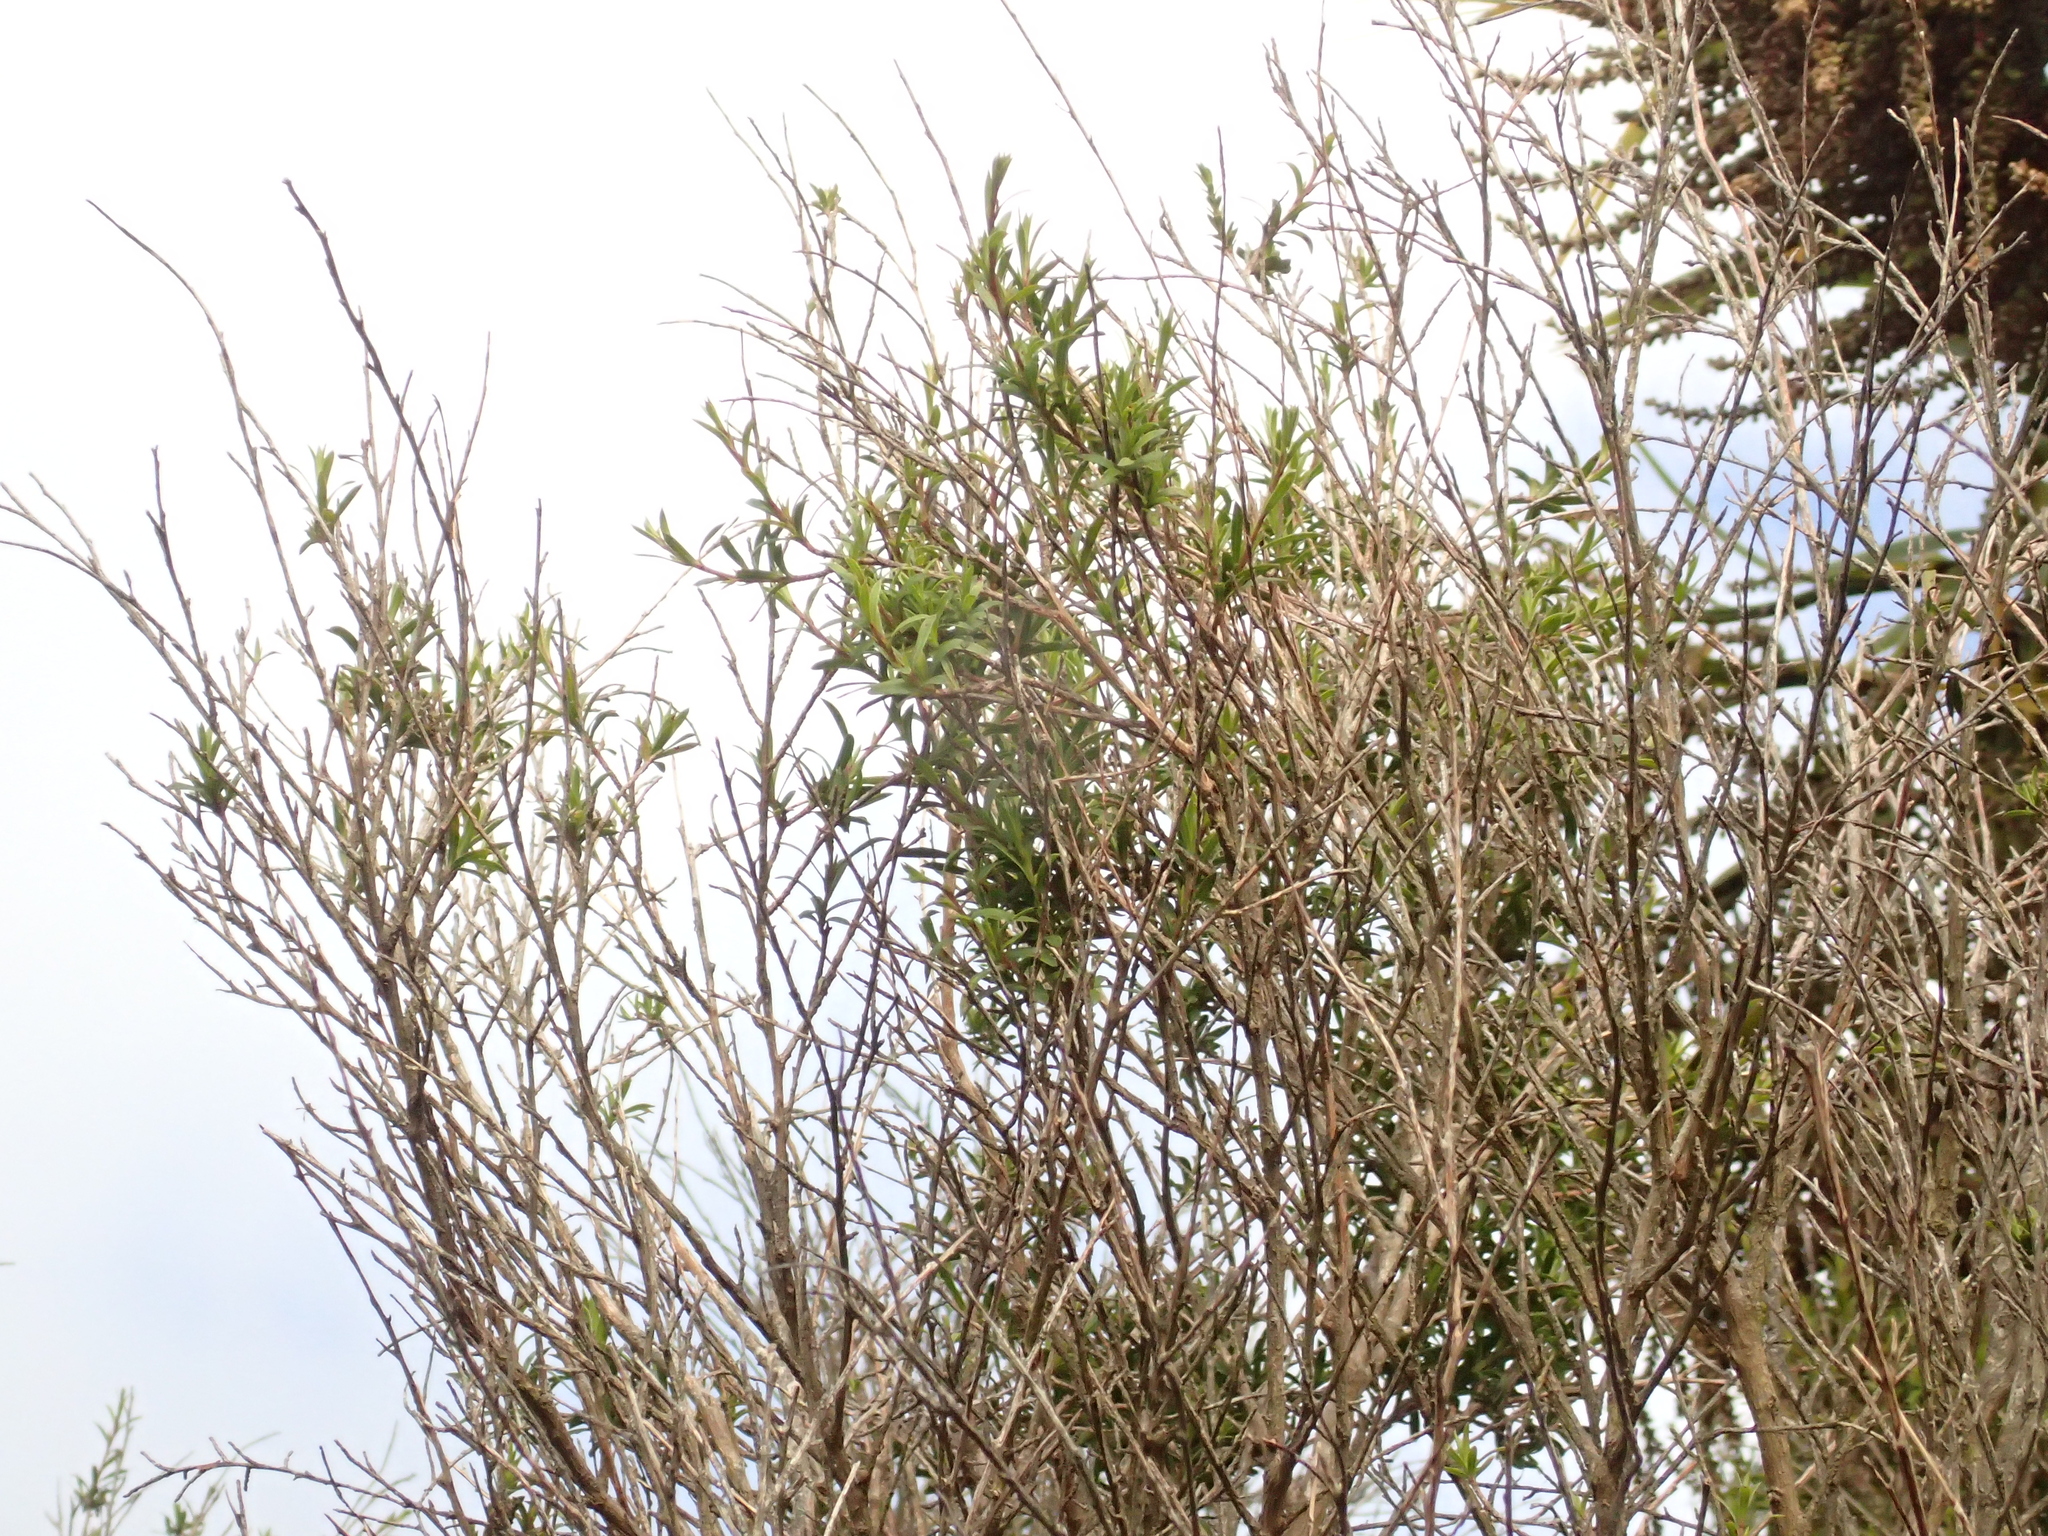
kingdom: Plantae
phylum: Tracheophyta
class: Magnoliopsida
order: Myrtales
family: Myrtaceae
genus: Kunzea
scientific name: Kunzea robusta
